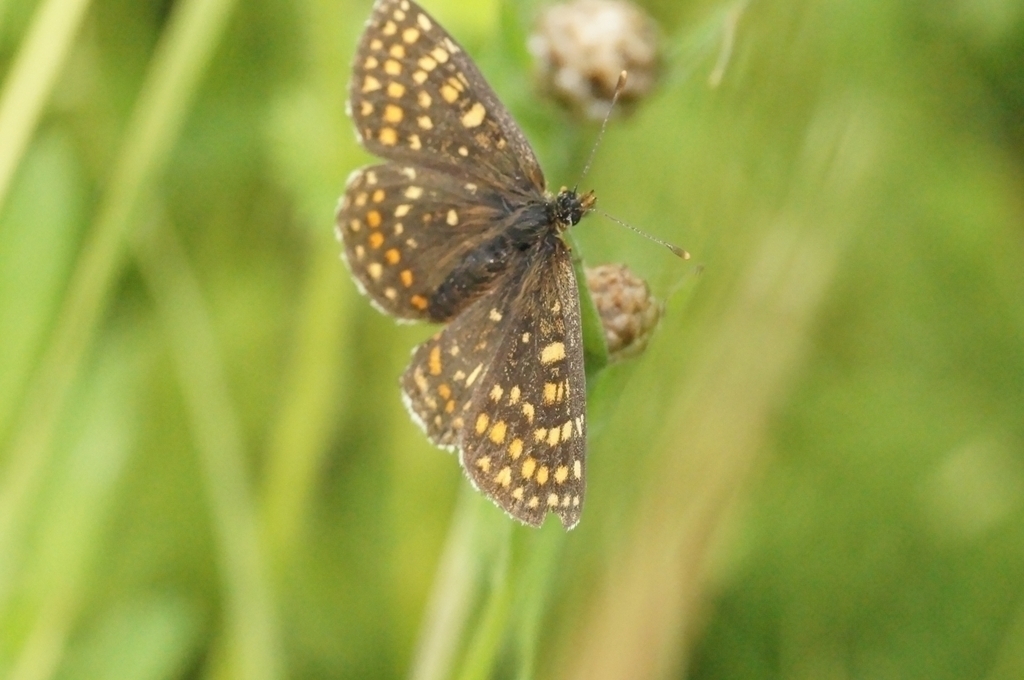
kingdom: Animalia
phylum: Arthropoda
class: Insecta
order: Lepidoptera
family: Nymphalidae
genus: Mellicta
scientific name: Mellicta britomartis
